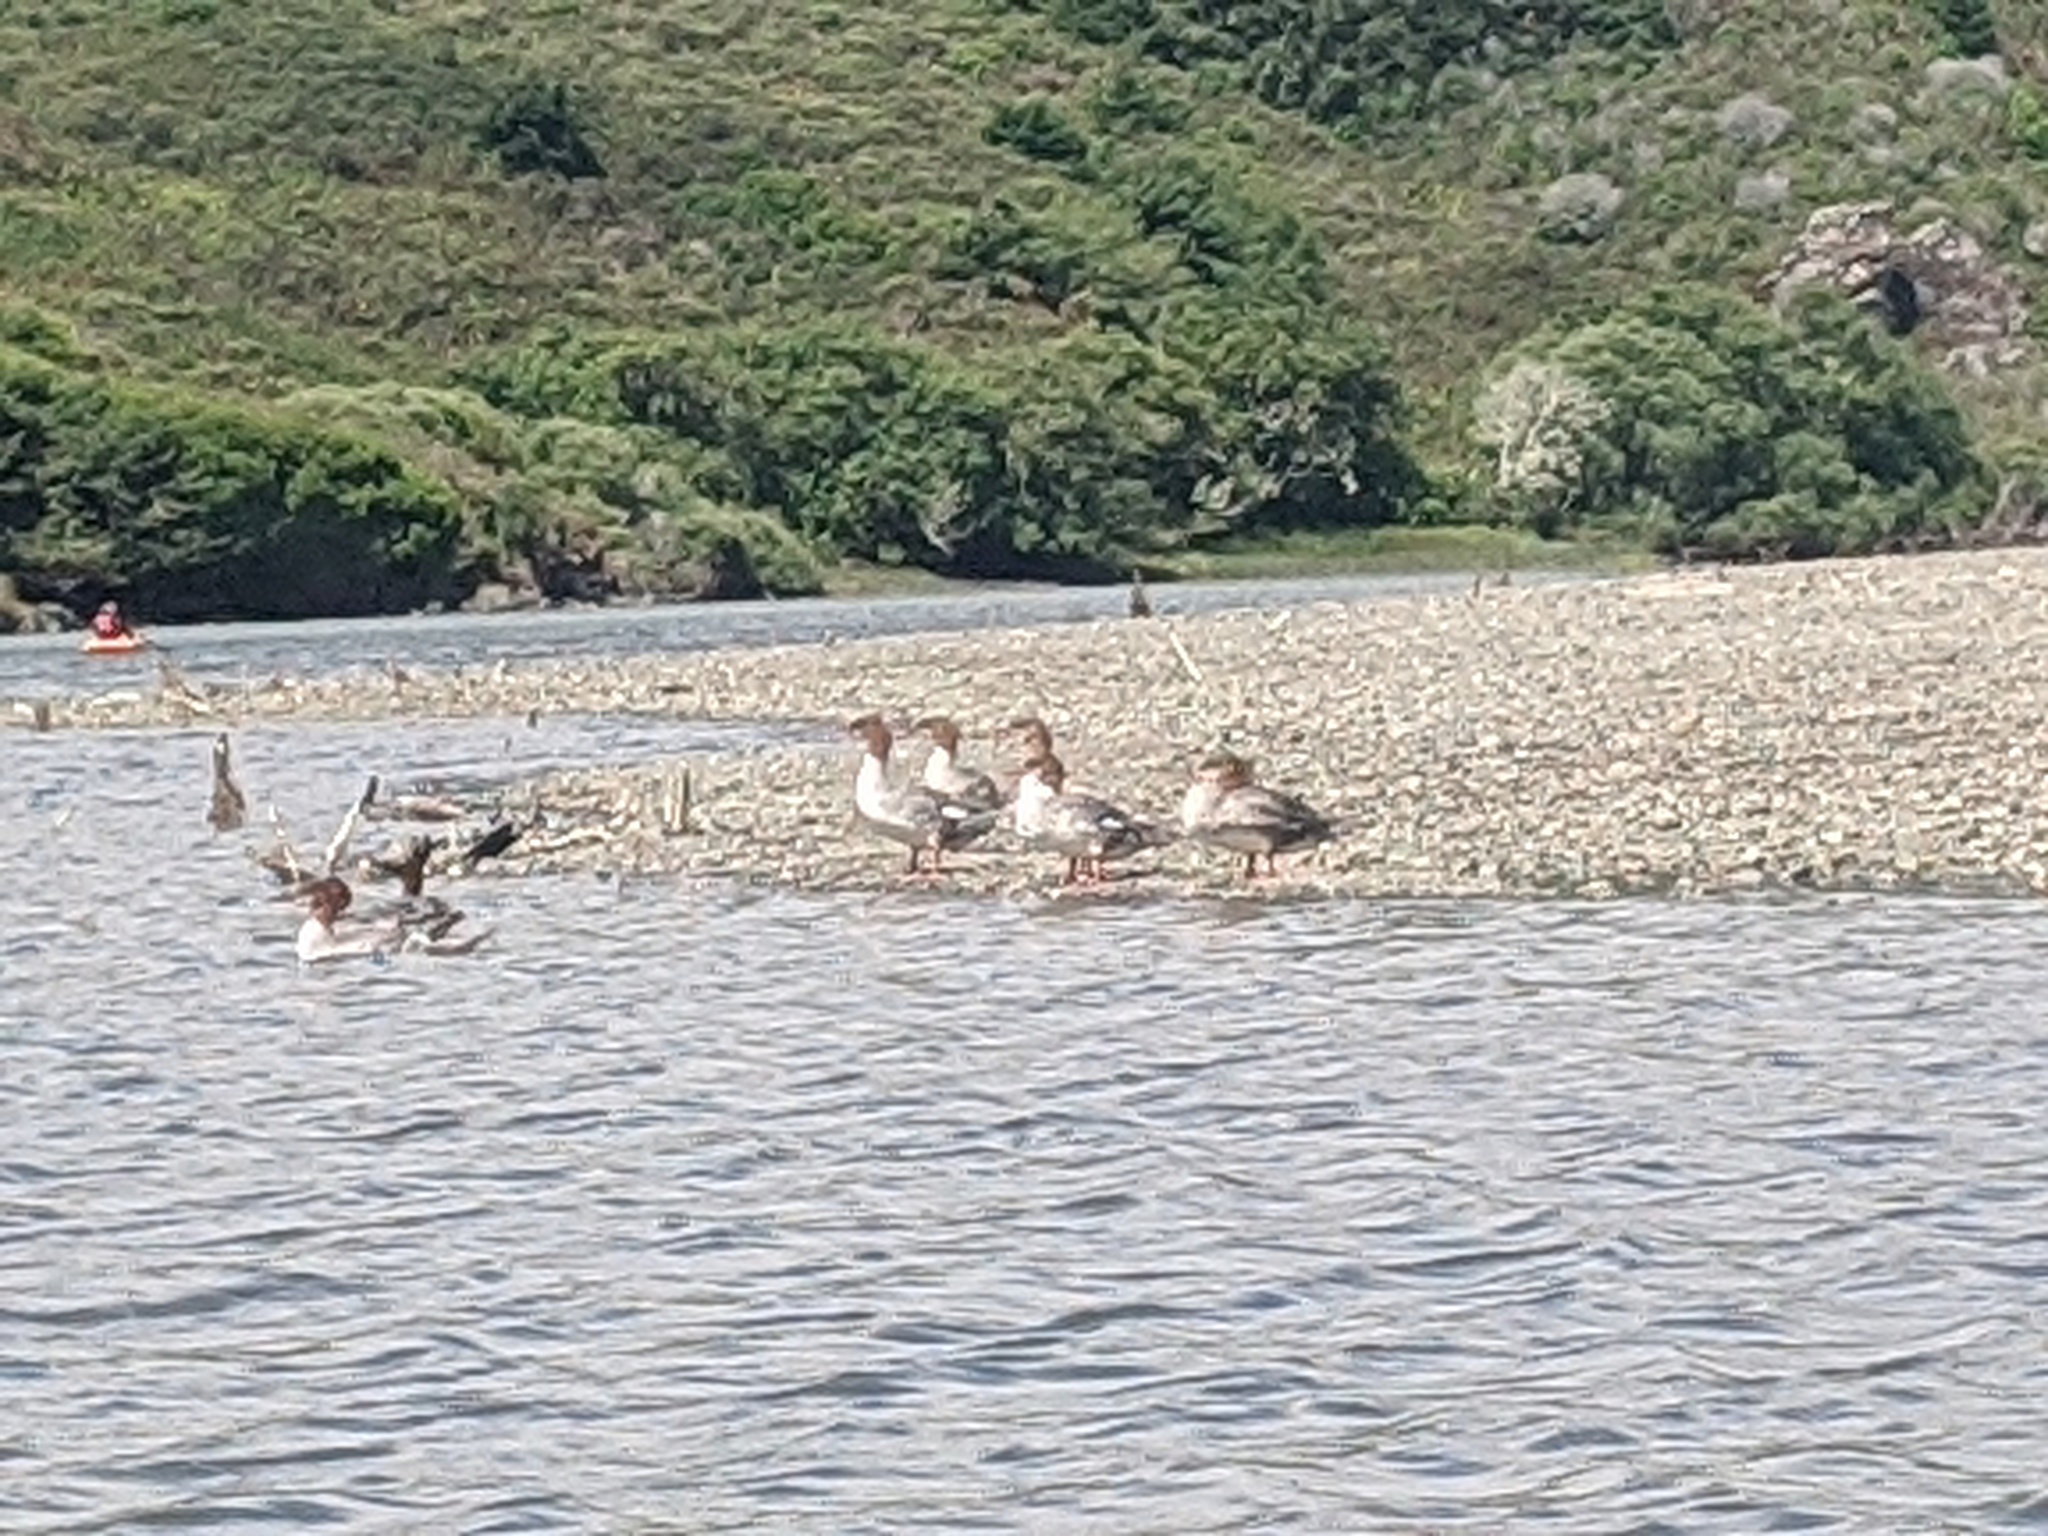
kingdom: Animalia
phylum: Chordata
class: Aves
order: Anseriformes
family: Anatidae
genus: Mergus
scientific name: Mergus merganser
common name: Common merganser
